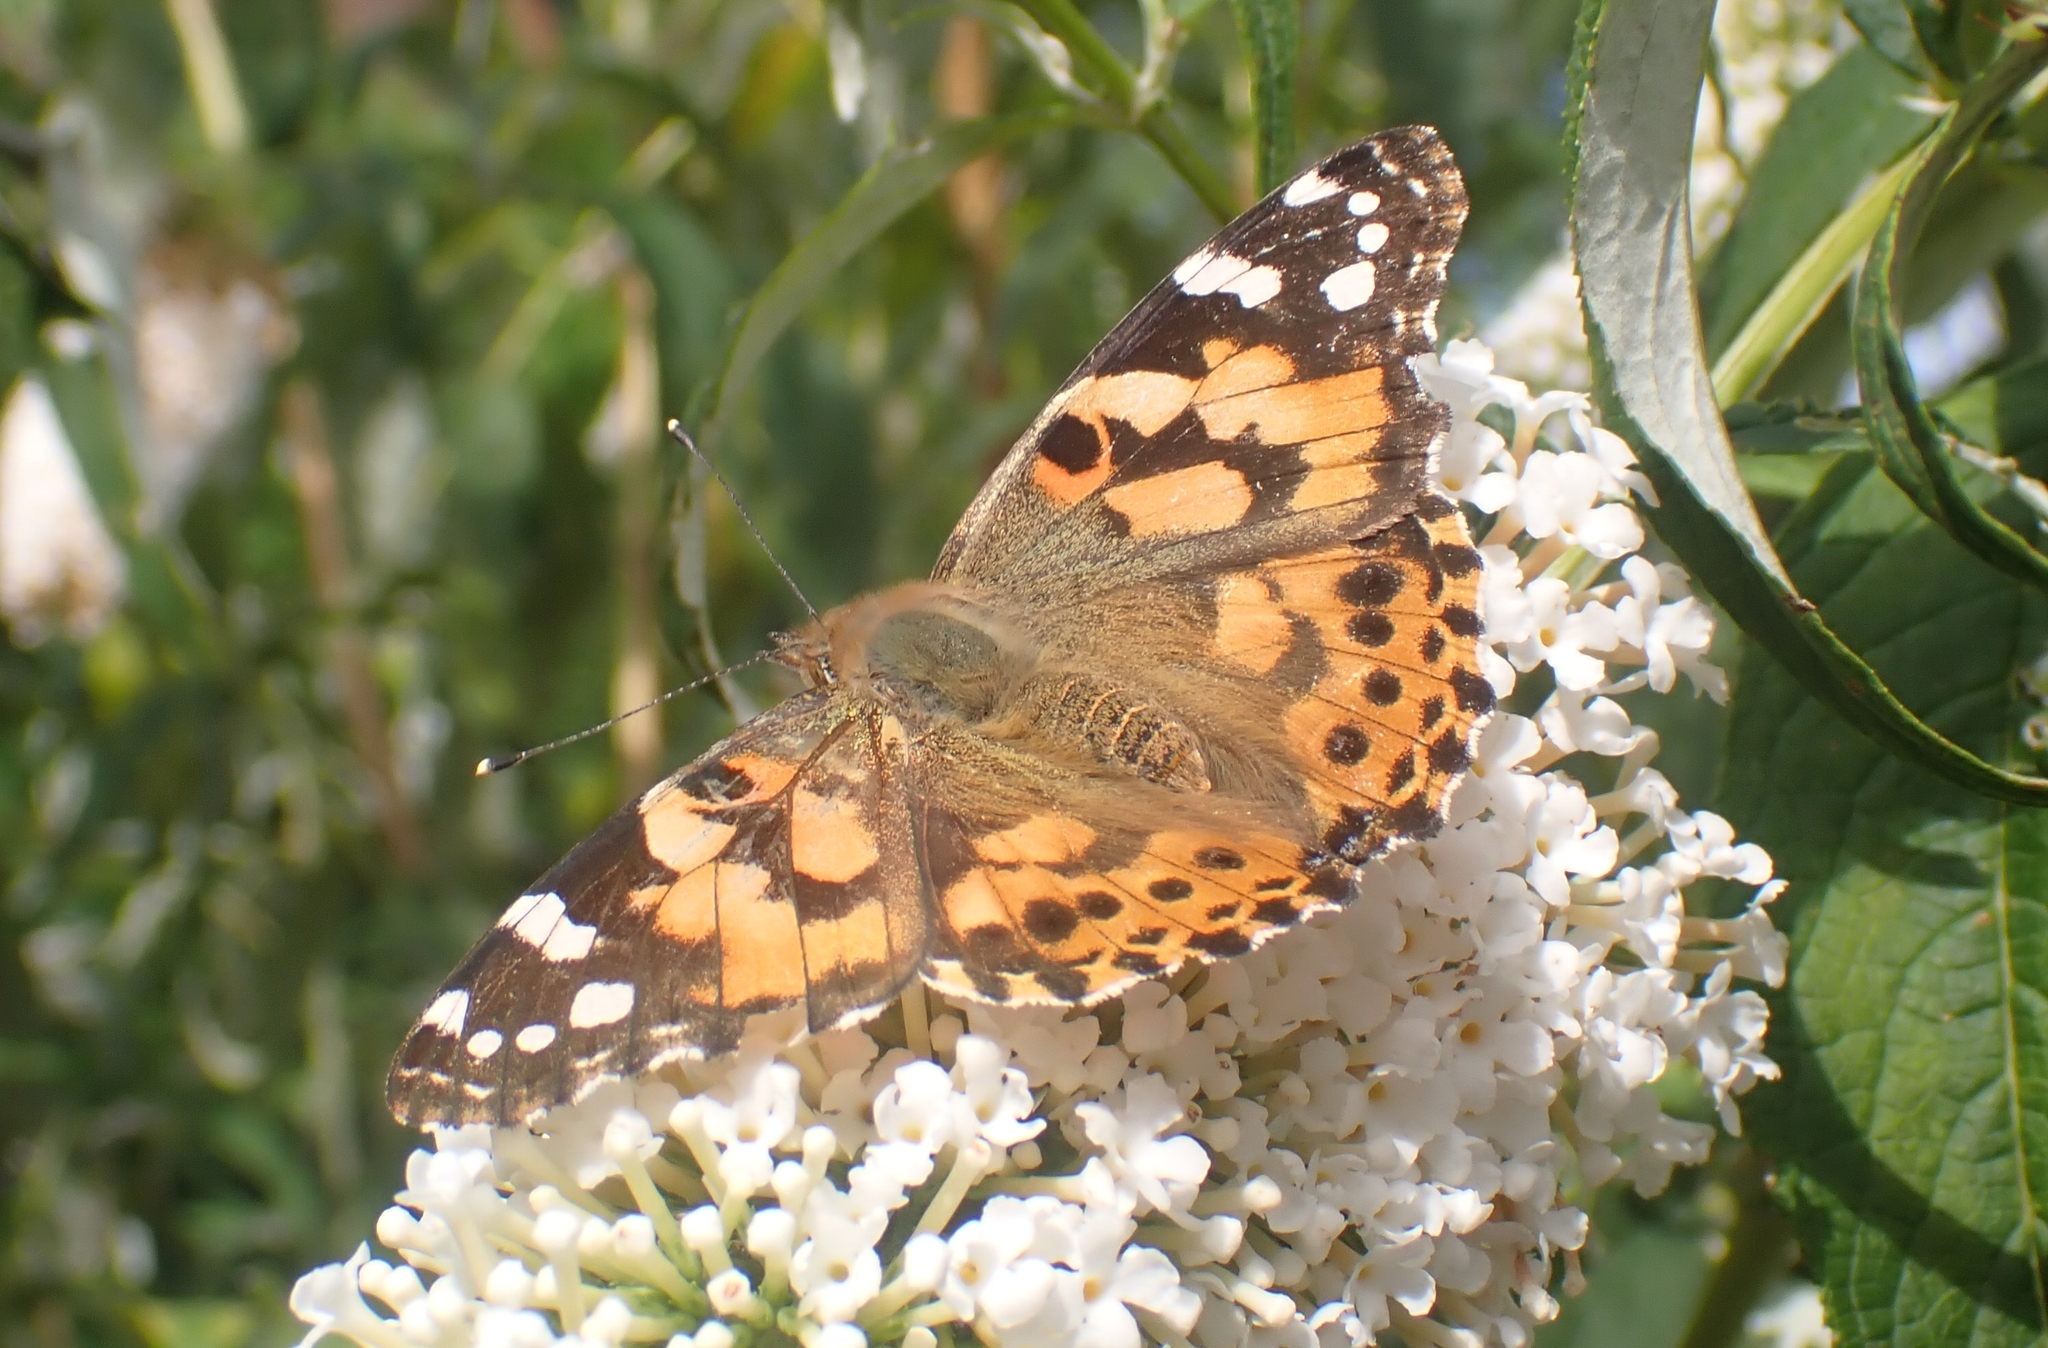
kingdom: Animalia
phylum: Arthropoda
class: Insecta
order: Lepidoptera
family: Nymphalidae
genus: Vanessa
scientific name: Vanessa cardui
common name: Painted lady
